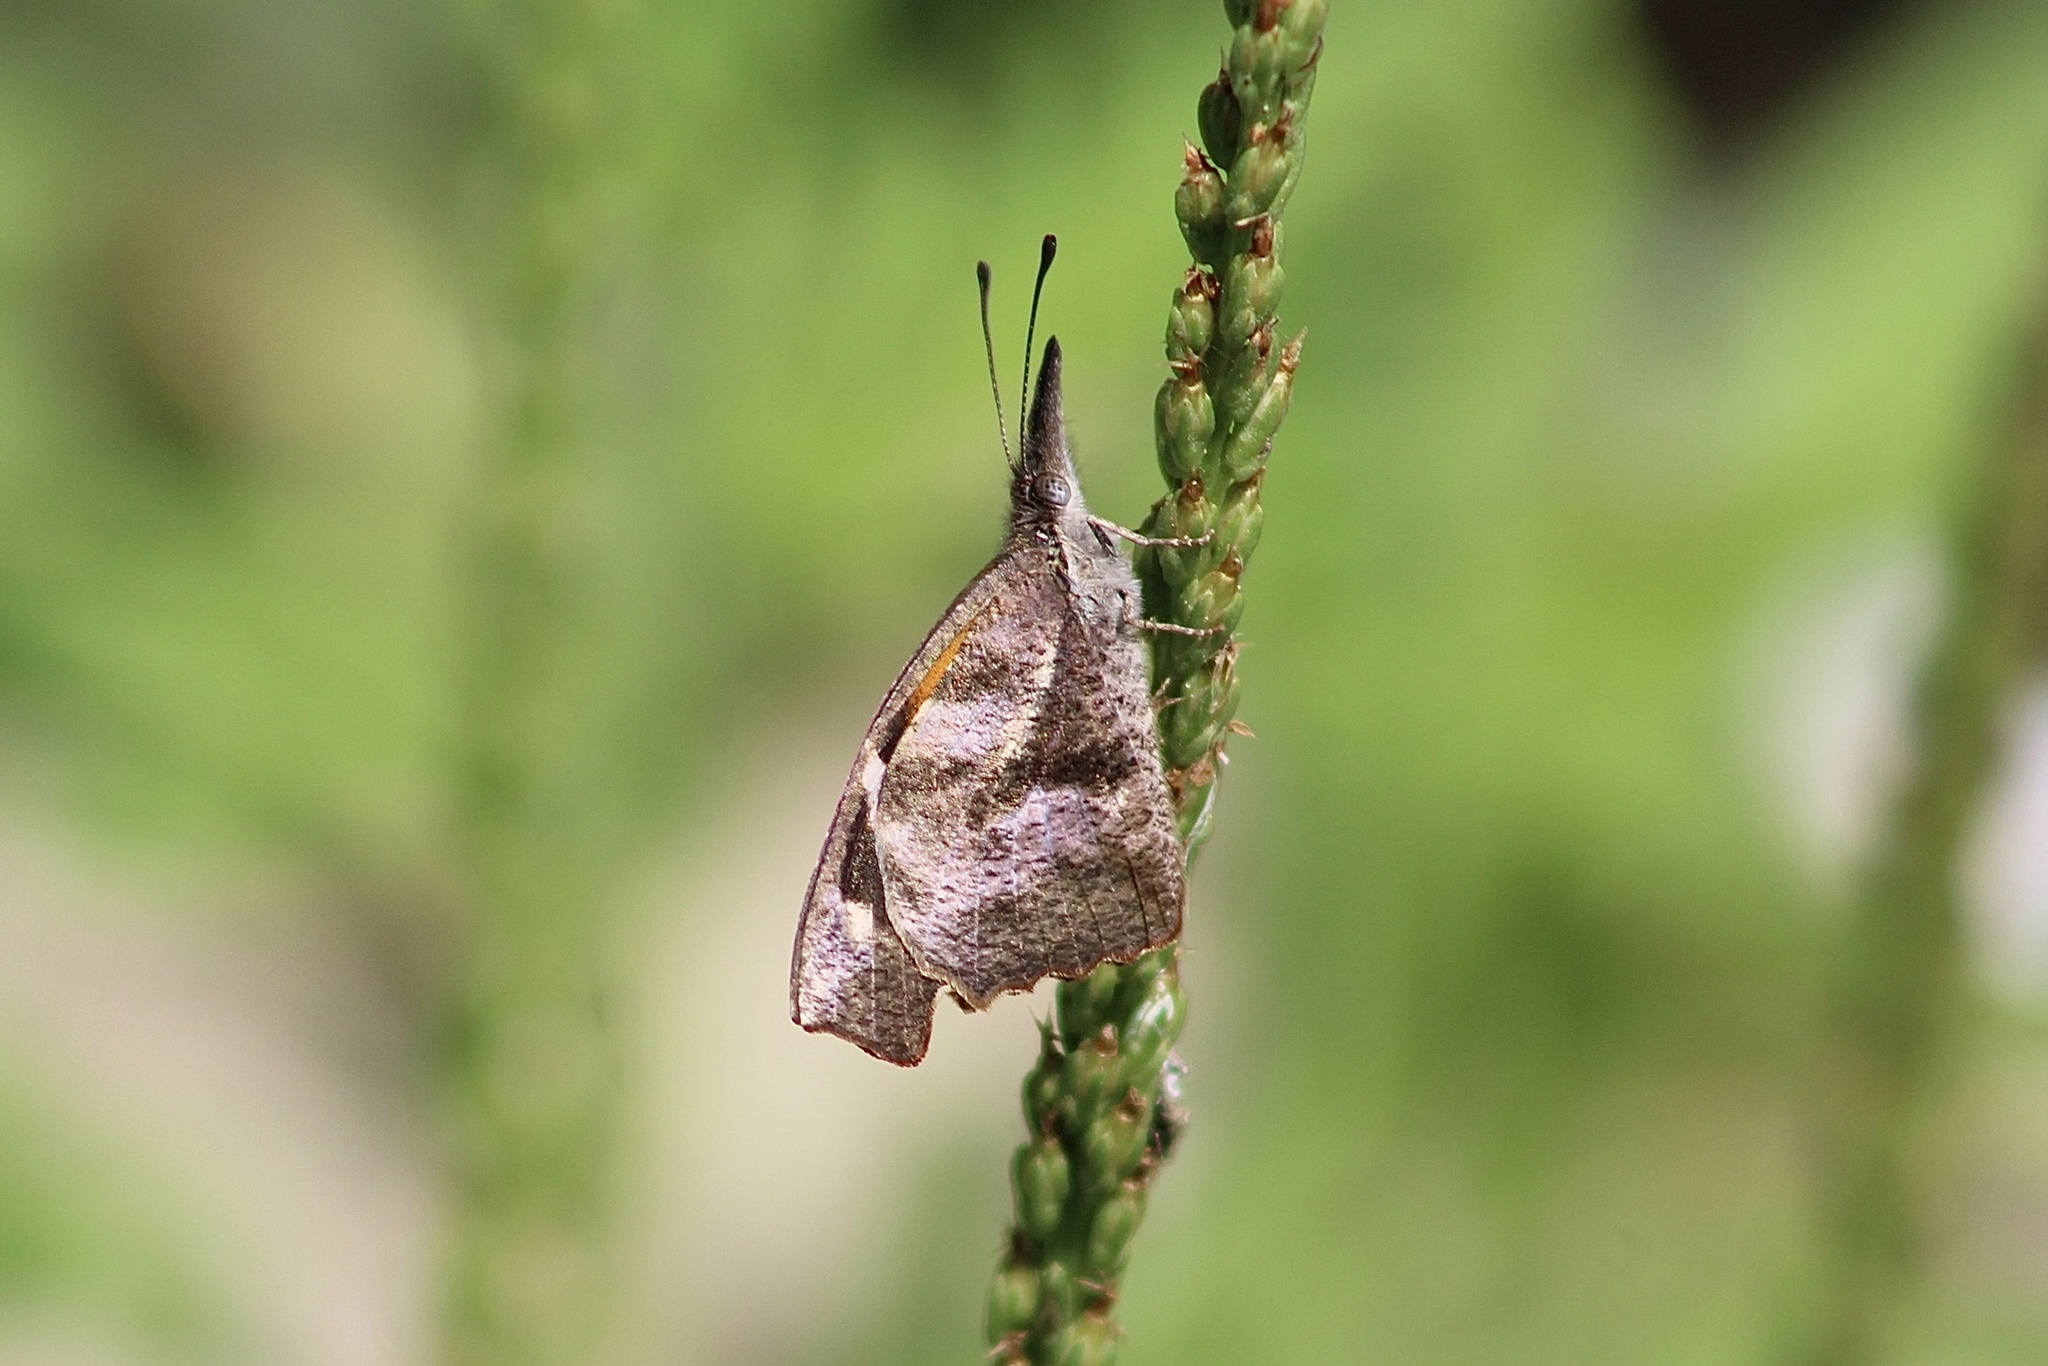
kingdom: Animalia
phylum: Arthropoda
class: Insecta
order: Lepidoptera
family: Nymphalidae
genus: Libytheana
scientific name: Libytheana carinenta
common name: American snout
